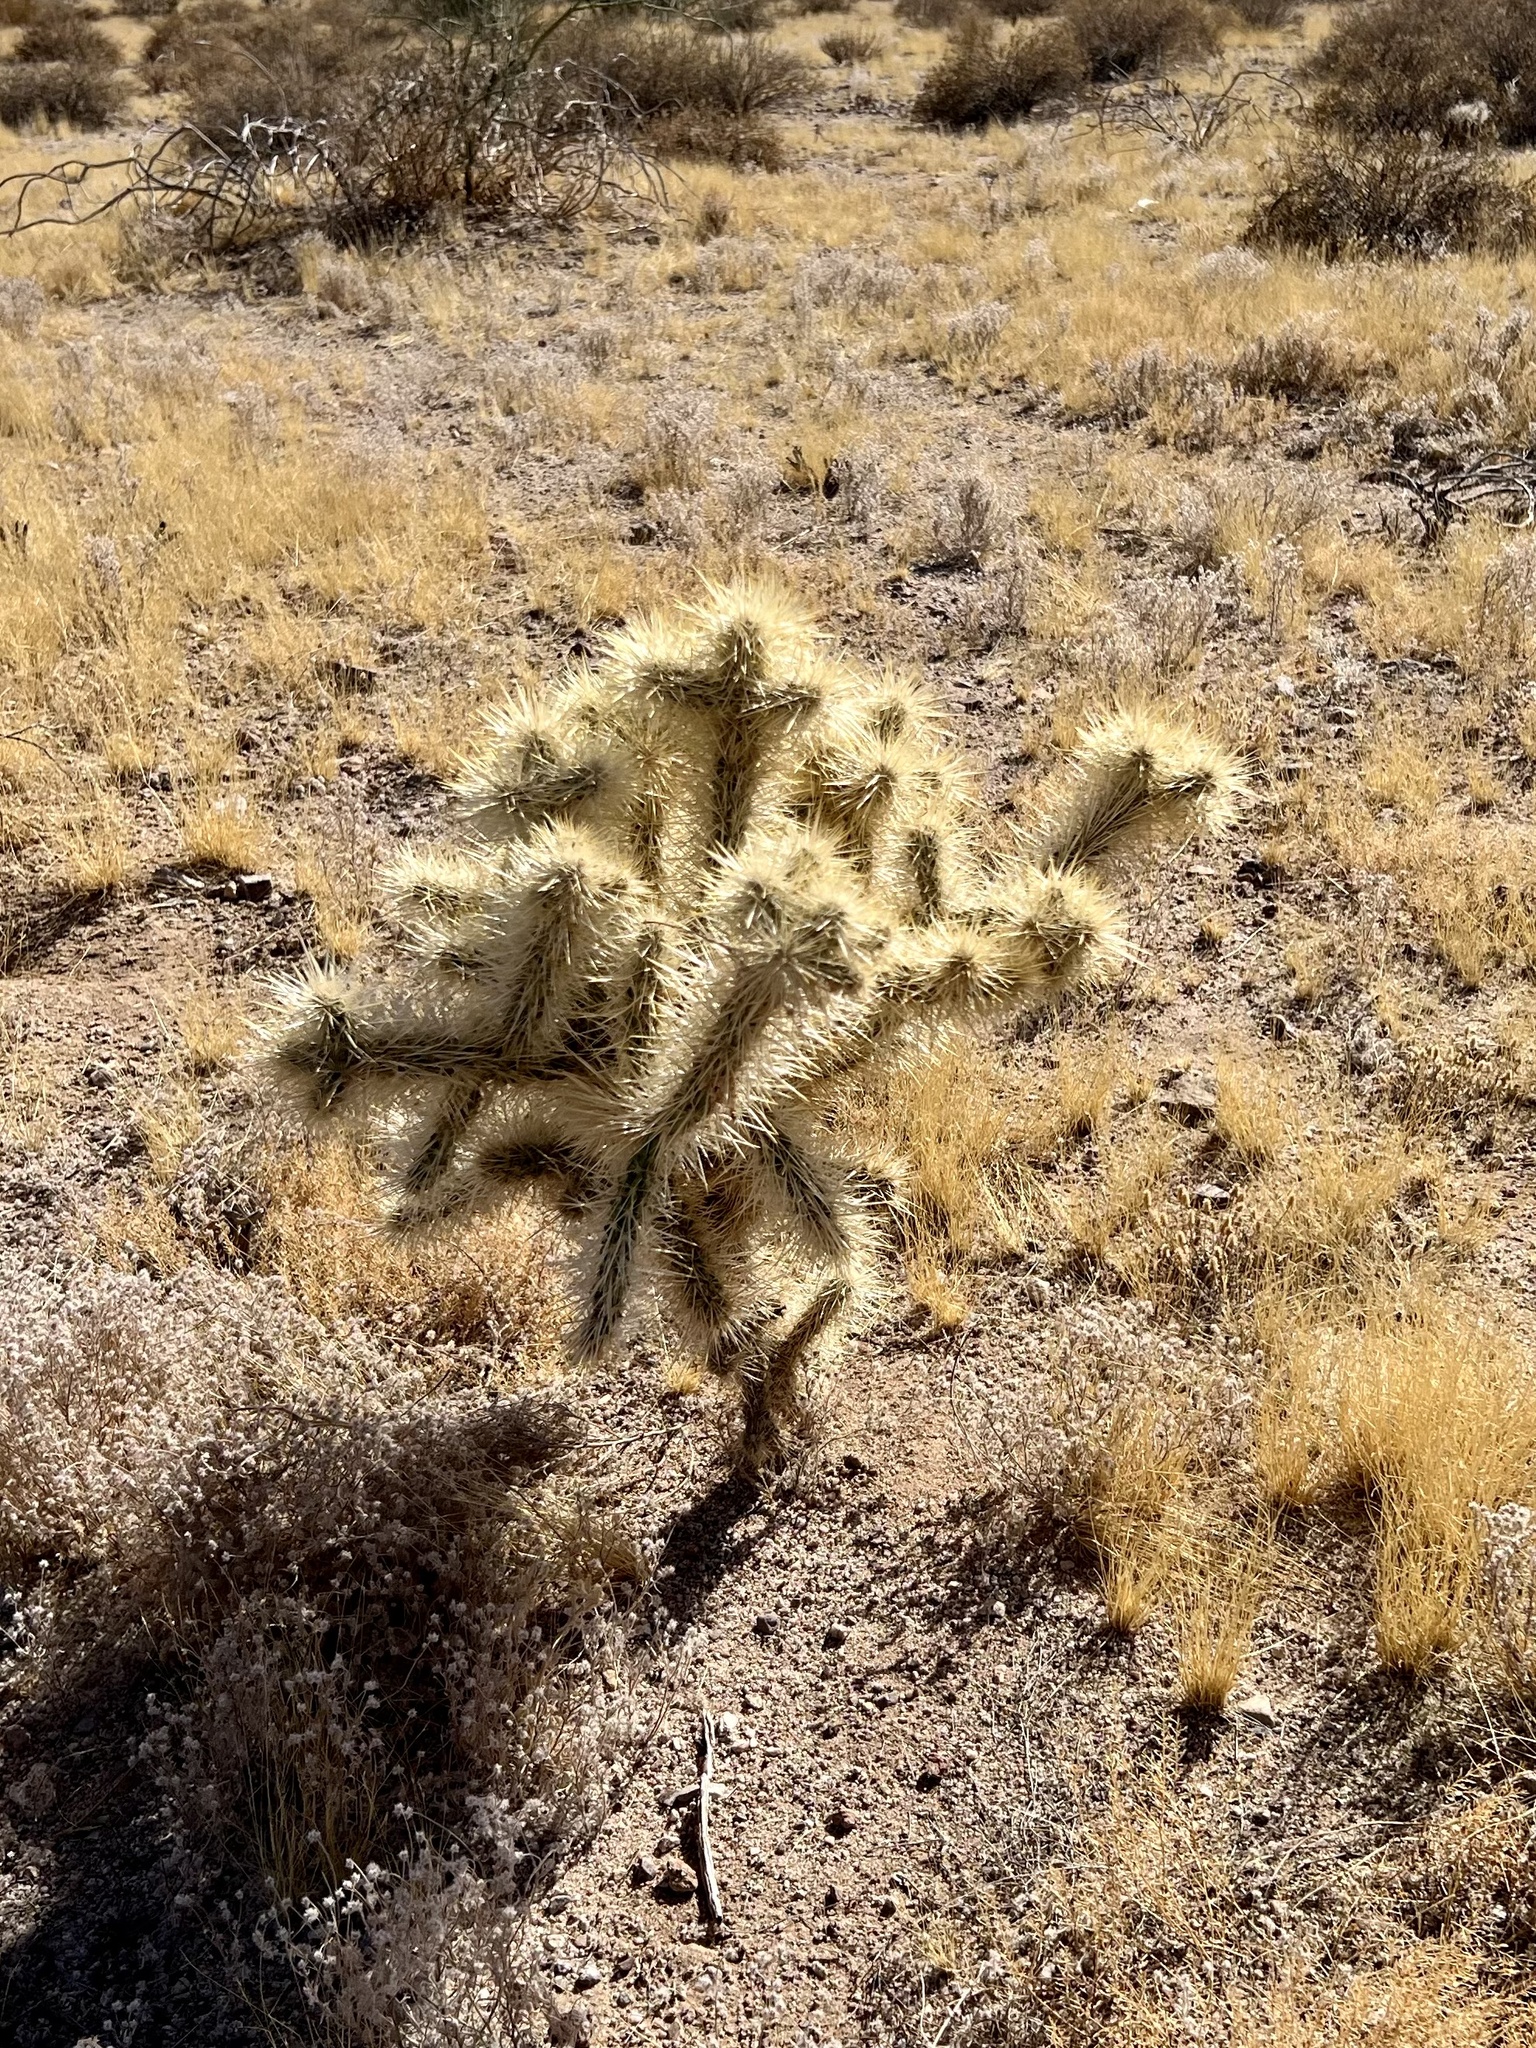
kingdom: Plantae
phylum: Tracheophyta
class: Magnoliopsida
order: Caryophyllales
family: Cactaceae
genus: Cylindropuntia
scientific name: Cylindropuntia fosbergii
